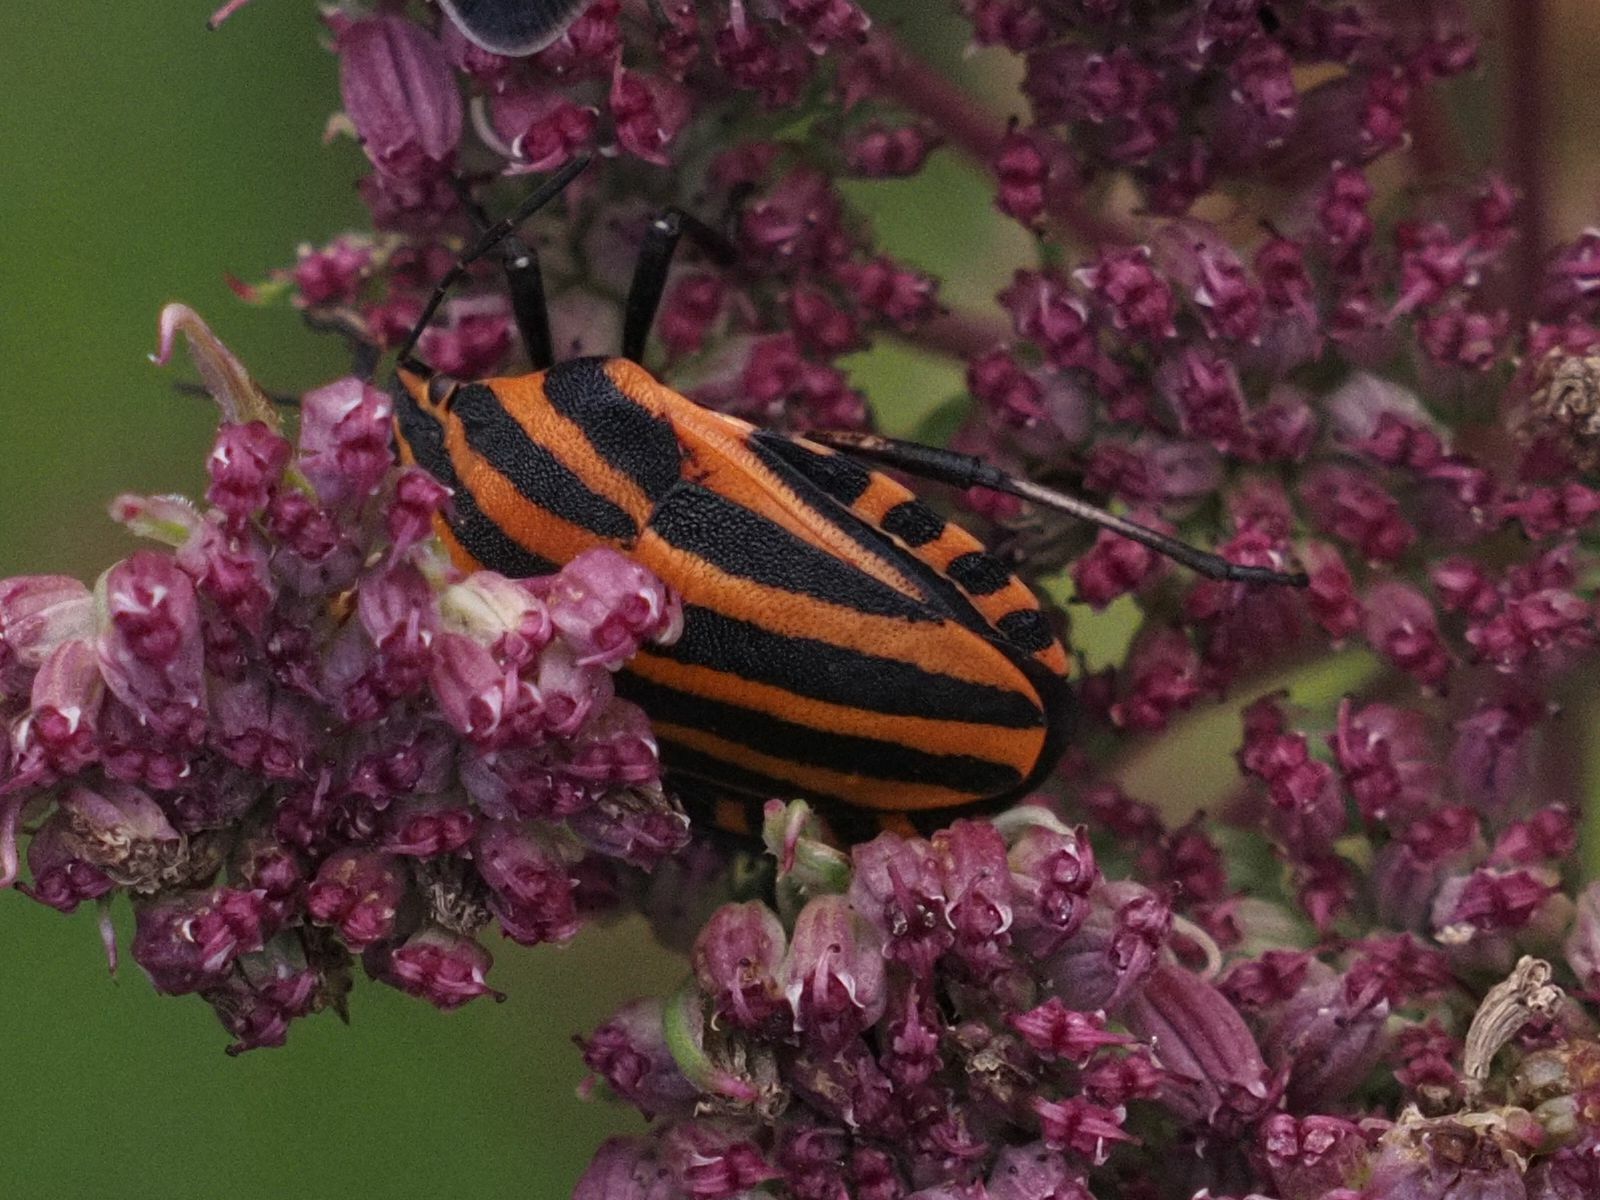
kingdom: Animalia
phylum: Arthropoda
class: Insecta
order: Hemiptera
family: Pentatomidae
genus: Graphosoma
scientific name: Graphosoma italicum
